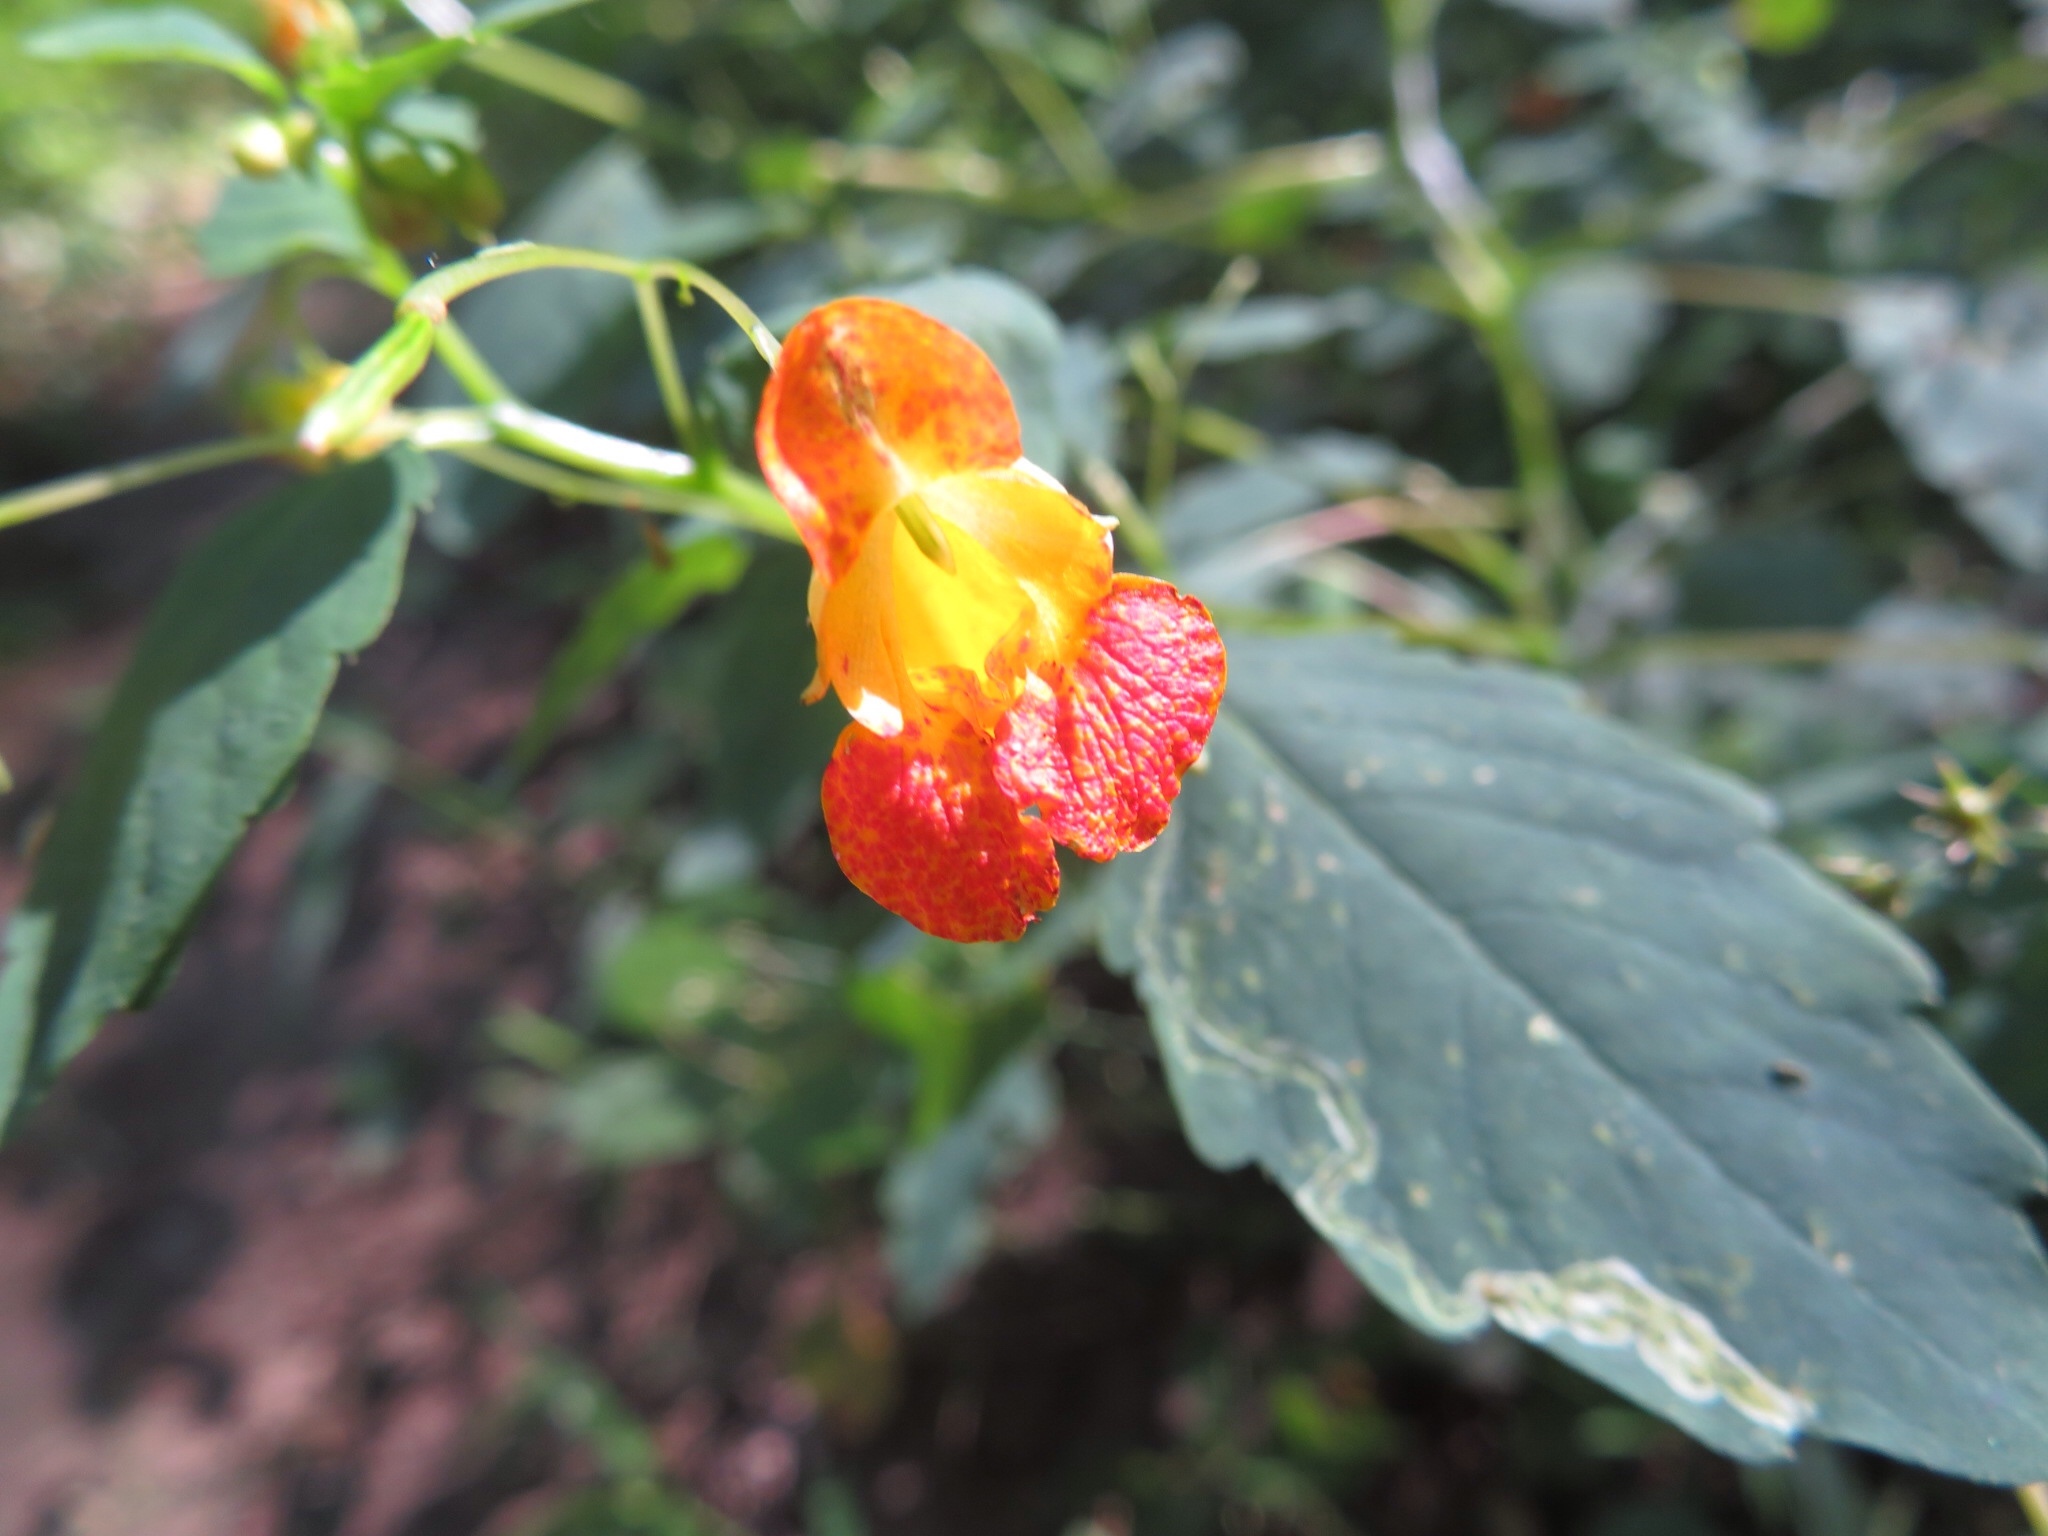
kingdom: Plantae
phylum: Tracheophyta
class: Magnoliopsida
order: Ericales
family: Balsaminaceae
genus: Impatiens
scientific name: Impatiens capensis
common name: Orange balsam
